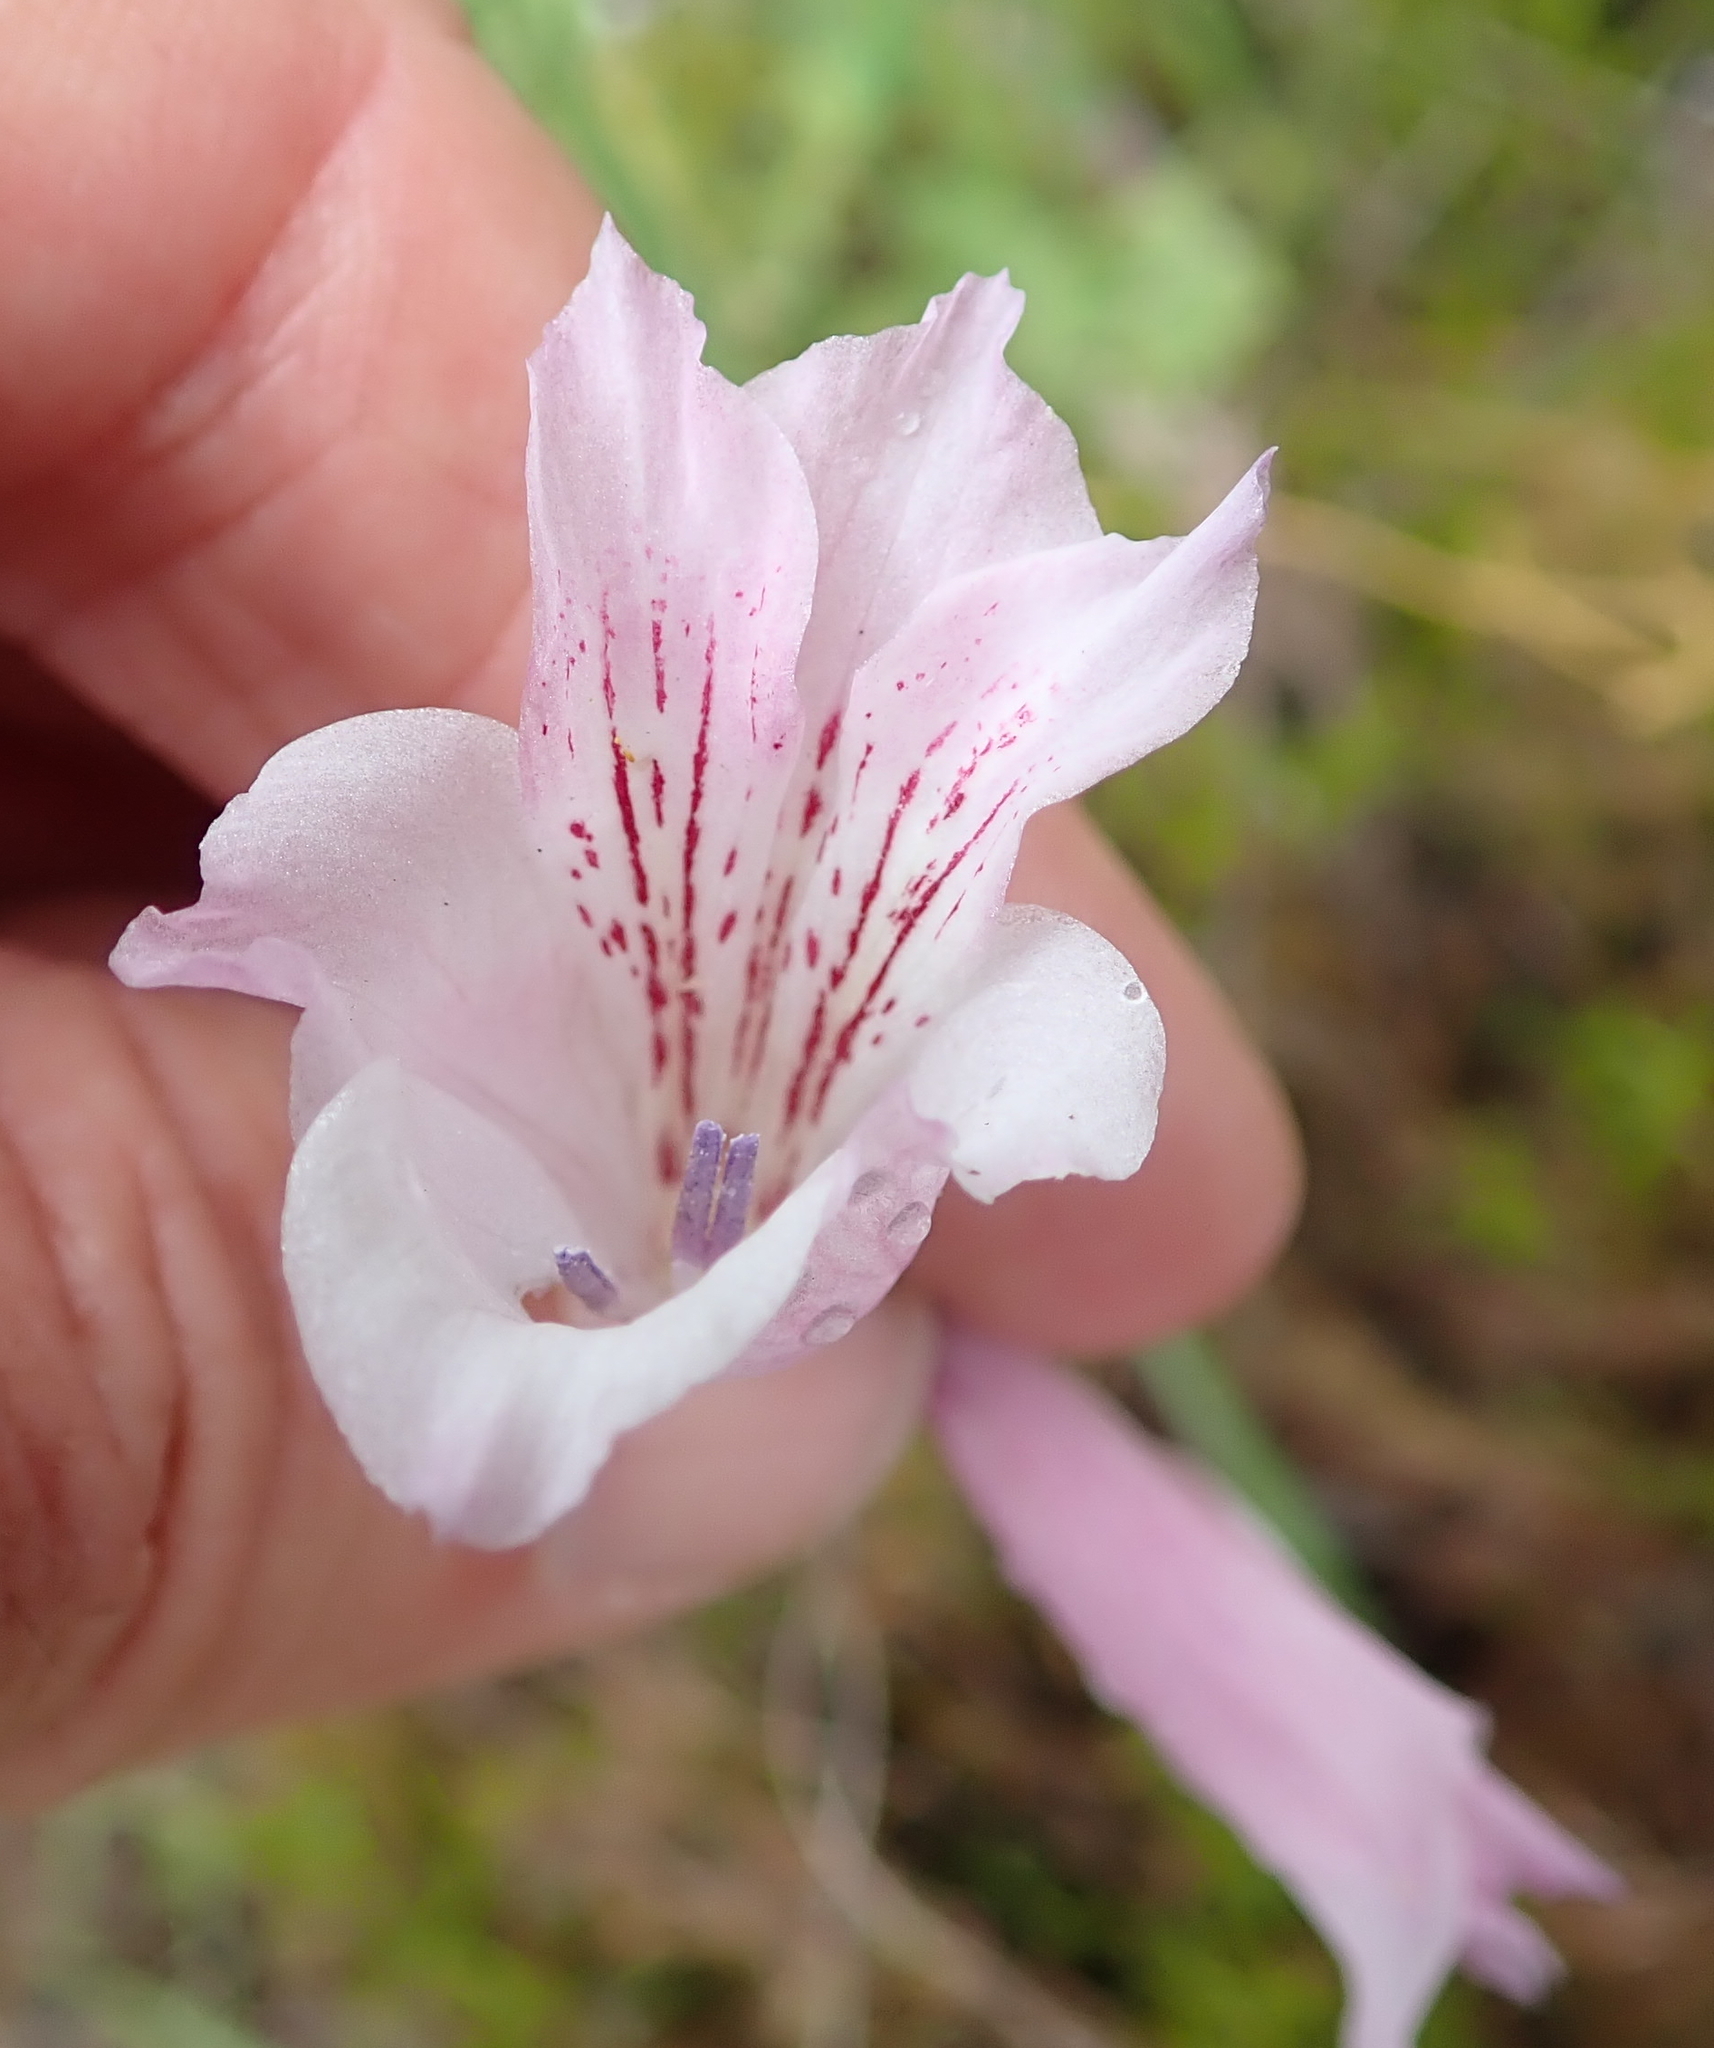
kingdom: Plantae
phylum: Tracheophyta
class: Liliopsida
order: Asparagales
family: Iridaceae
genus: Gladiolus
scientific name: Gladiolus hirsutus
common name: Small pink afrikaner
